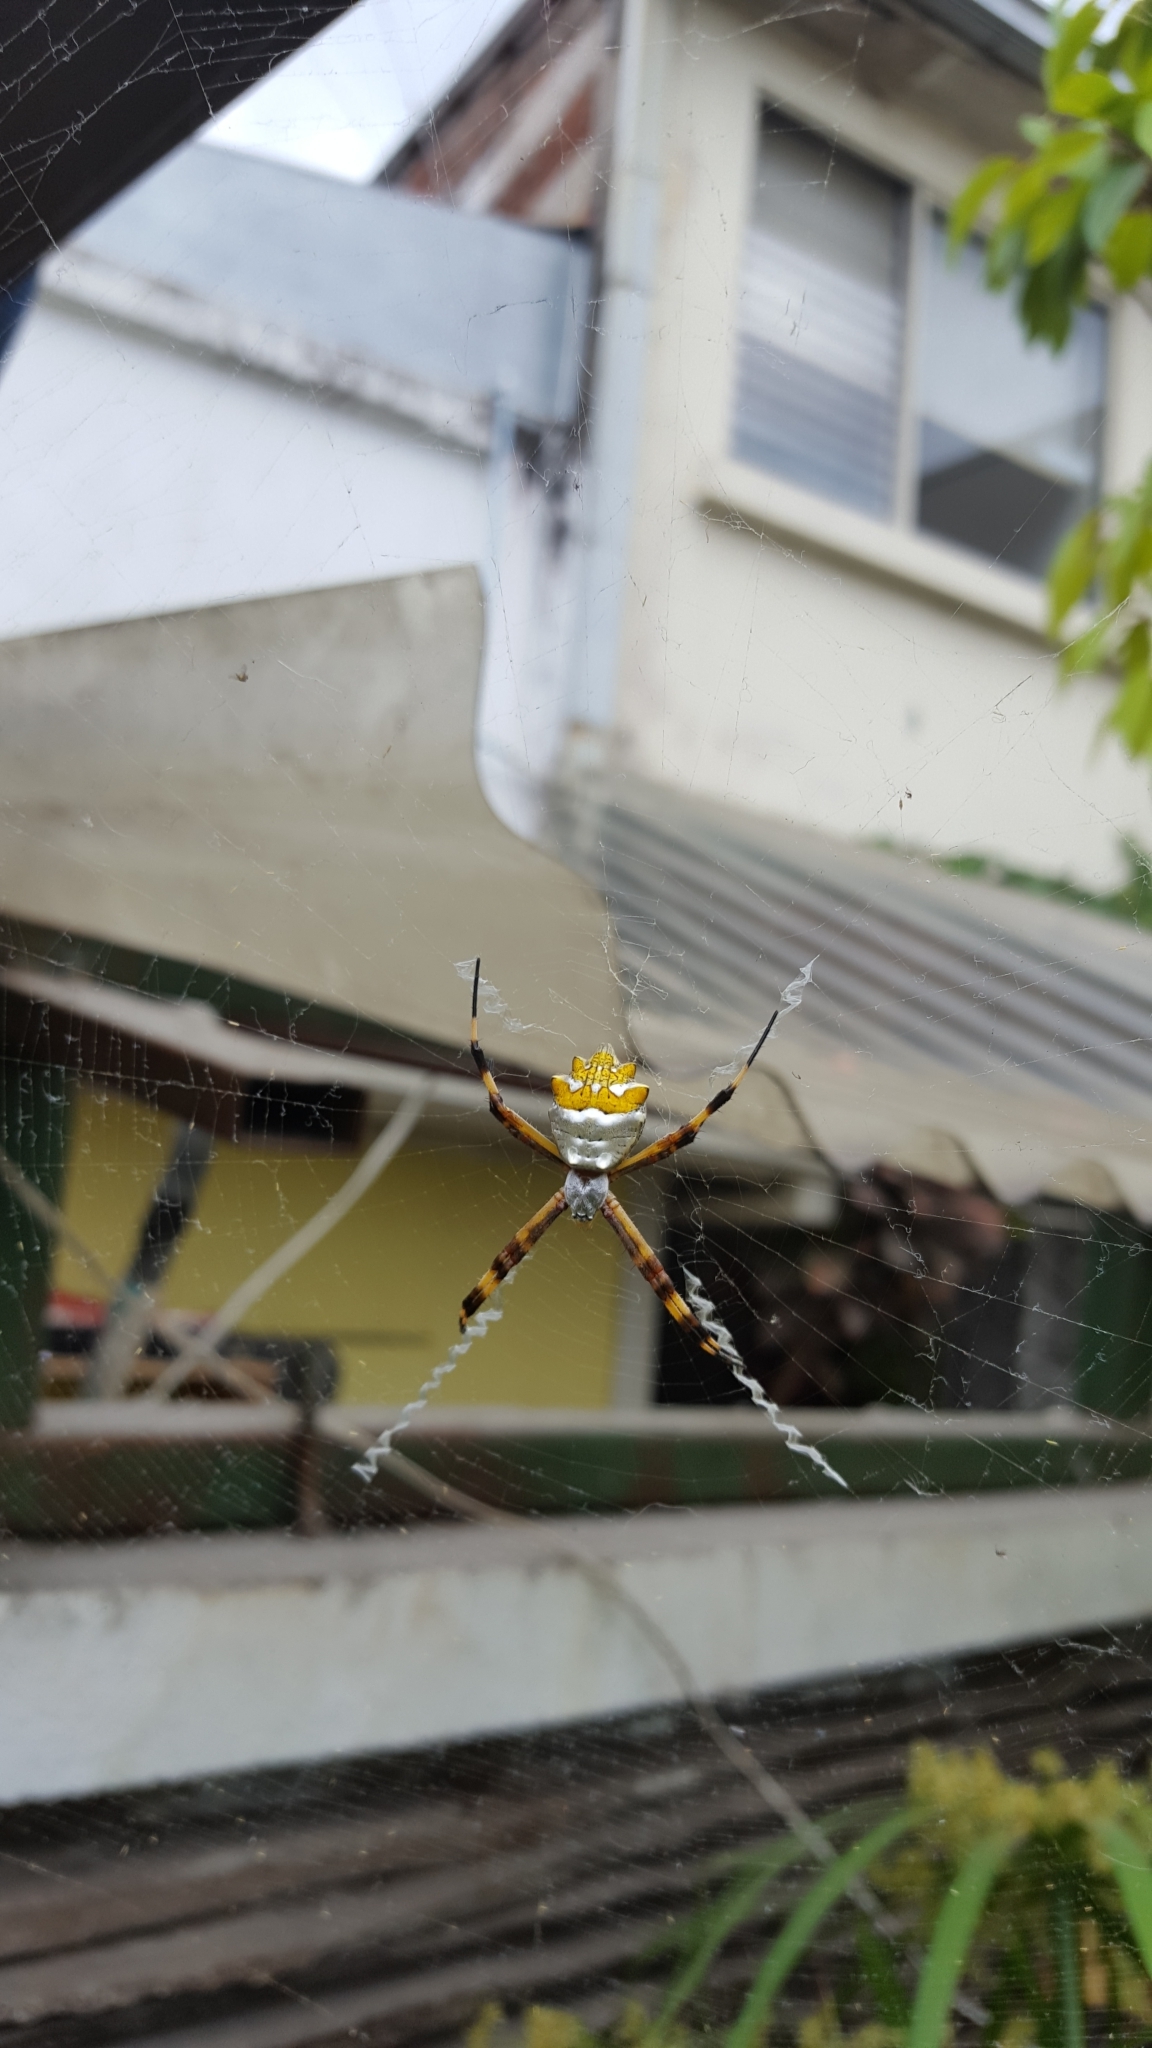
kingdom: Animalia
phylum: Arthropoda
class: Arachnida
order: Araneae
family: Araneidae
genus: Argiope
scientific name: Argiope argentata
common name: Orb weavers
